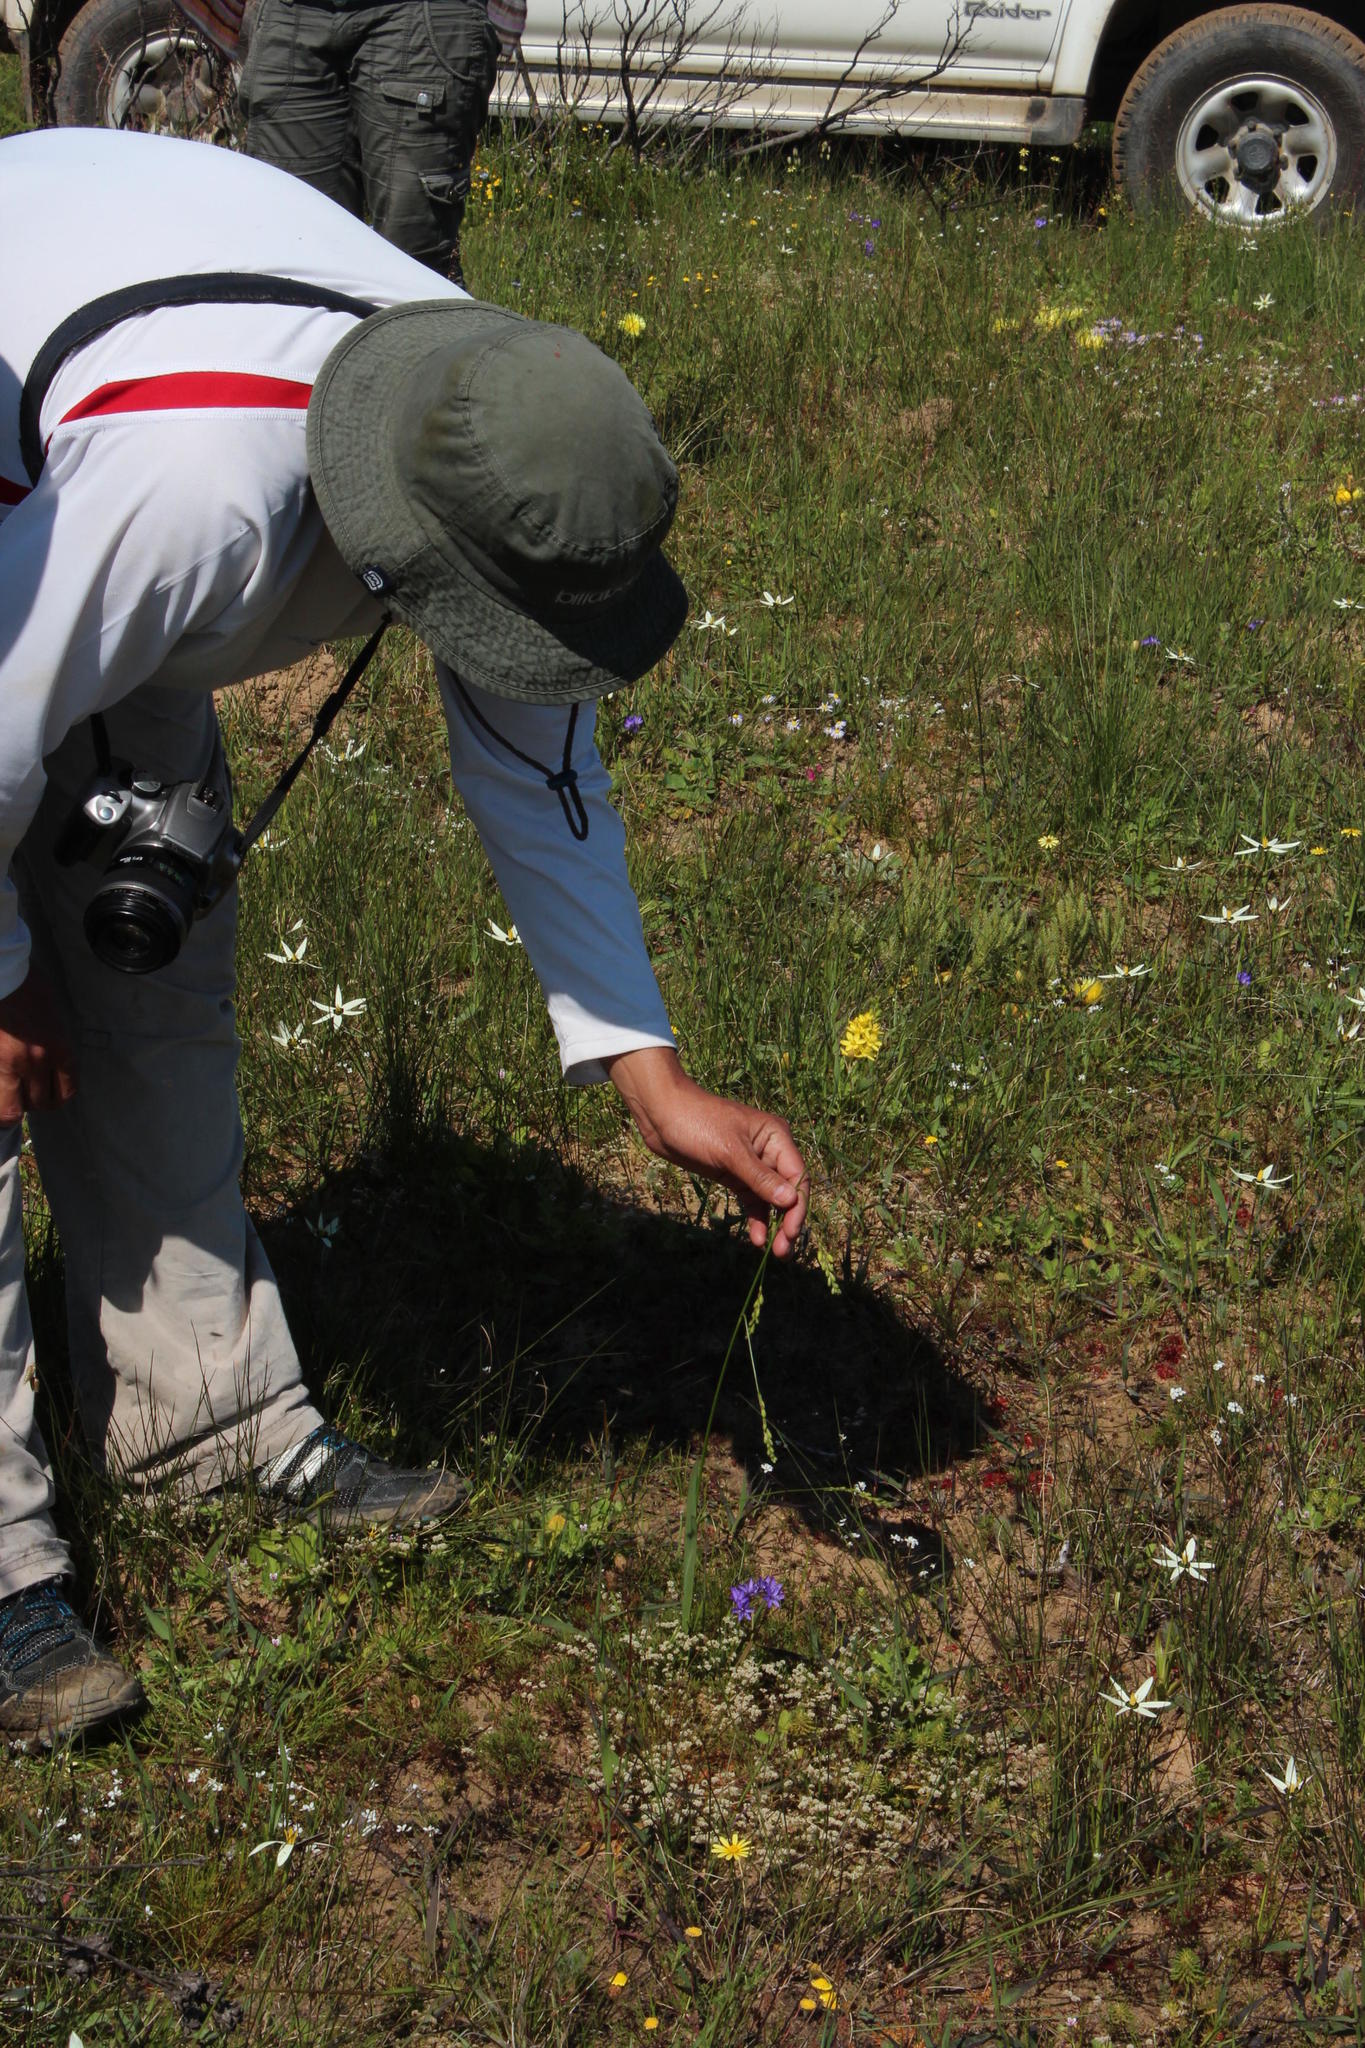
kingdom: Plantae
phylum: Tracheophyta
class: Liliopsida
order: Asparagales
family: Iridaceae
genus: Ixia
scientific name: Ixia odorata
